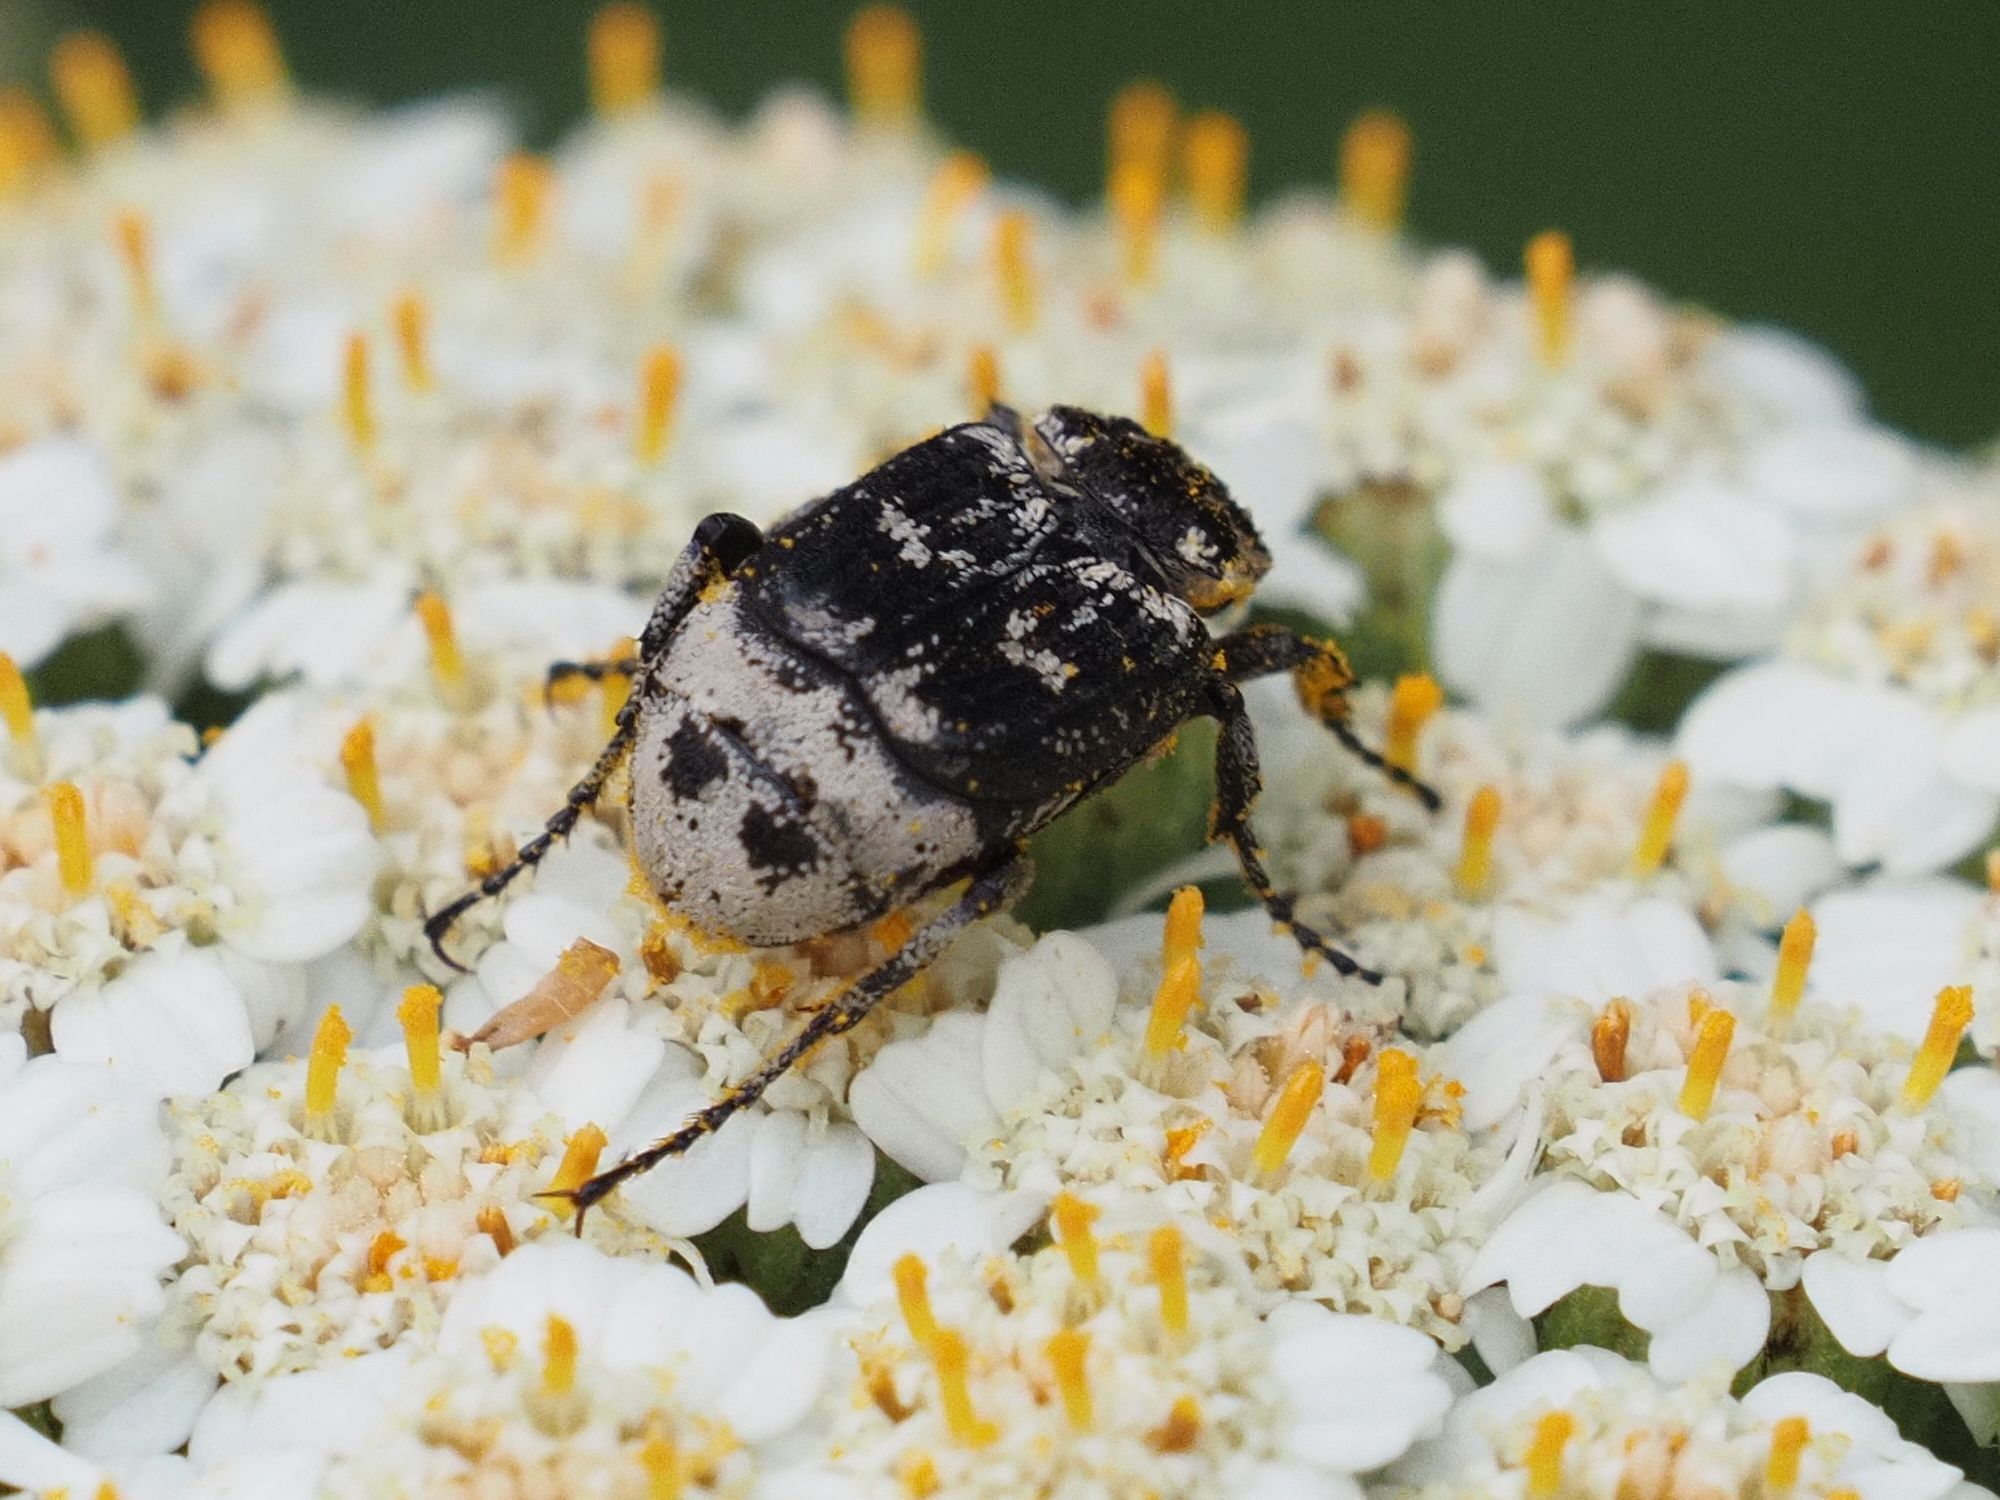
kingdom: Animalia
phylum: Arthropoda
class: Insecta
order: Coleoptera
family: Scarabaeidae
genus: Valgus
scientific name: Valgus hemipterus
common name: Bug flower chafer
